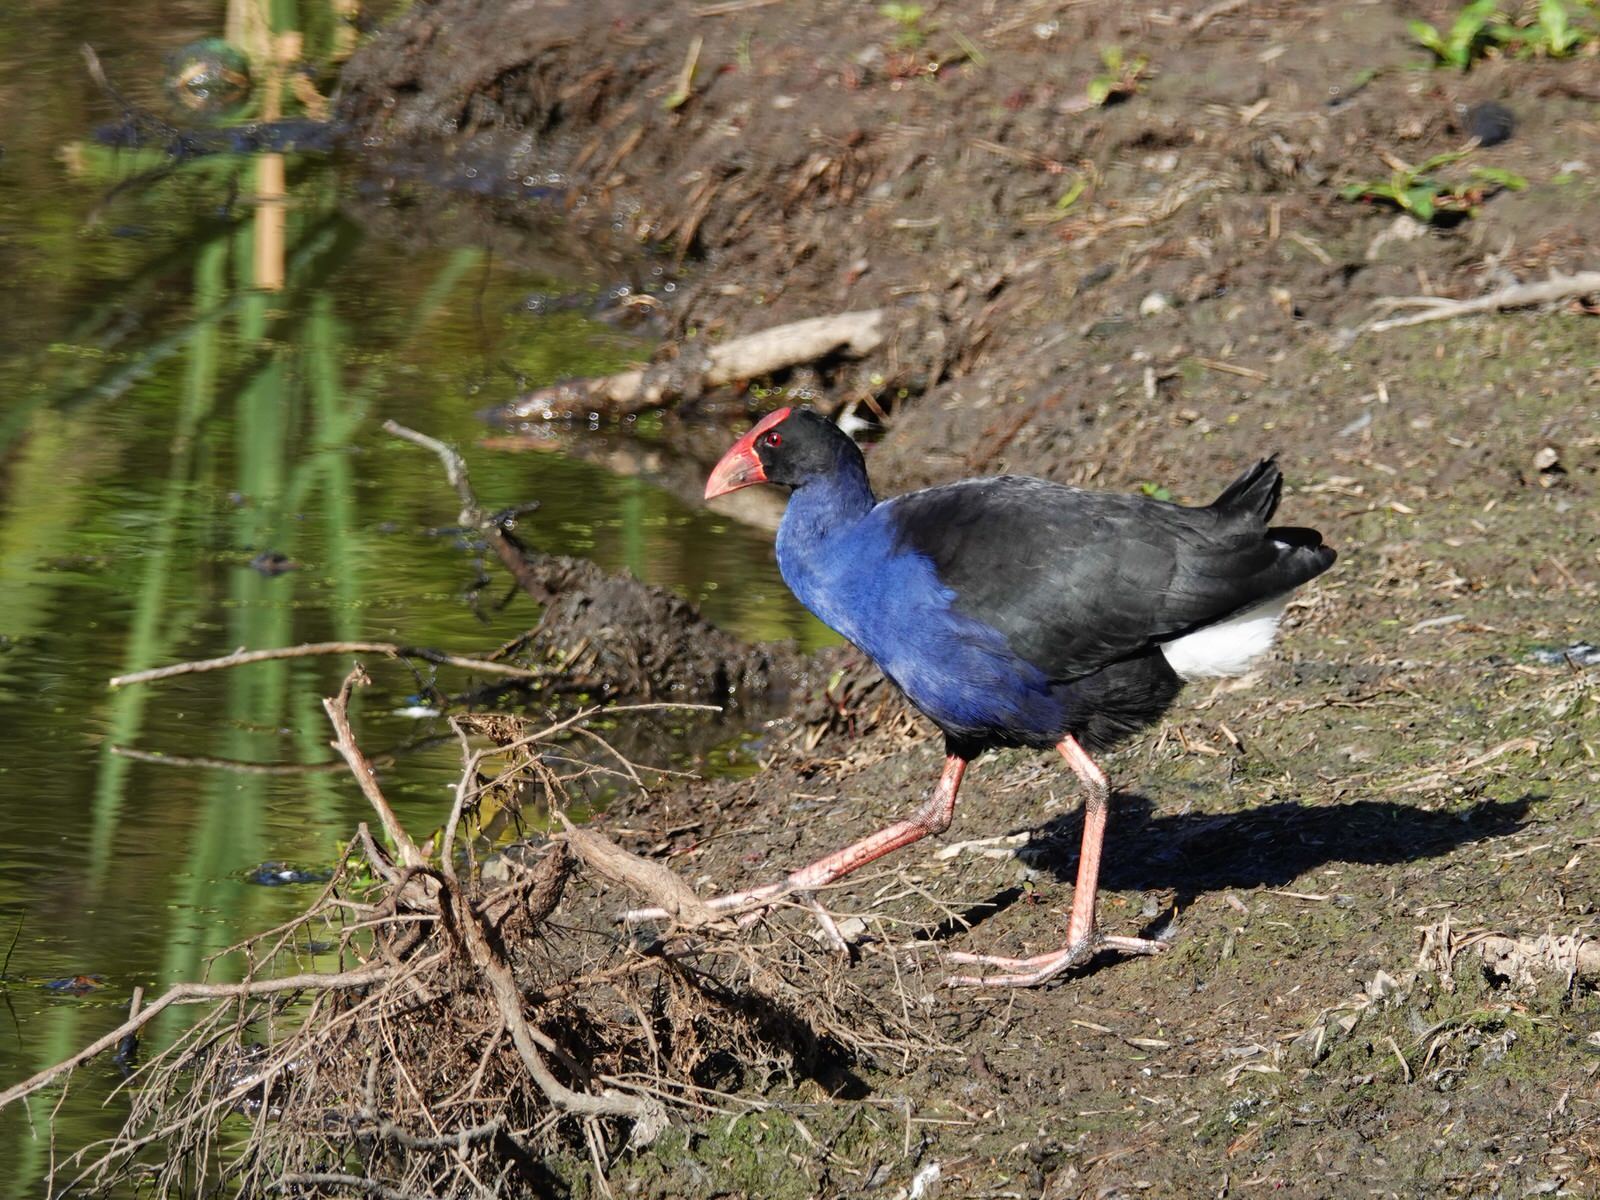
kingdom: Animalia
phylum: Chordata
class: Aves
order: Gruiformes
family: Rallidae
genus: Porphyrio
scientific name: Porphyrio melanotus
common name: Australasian swamphen
